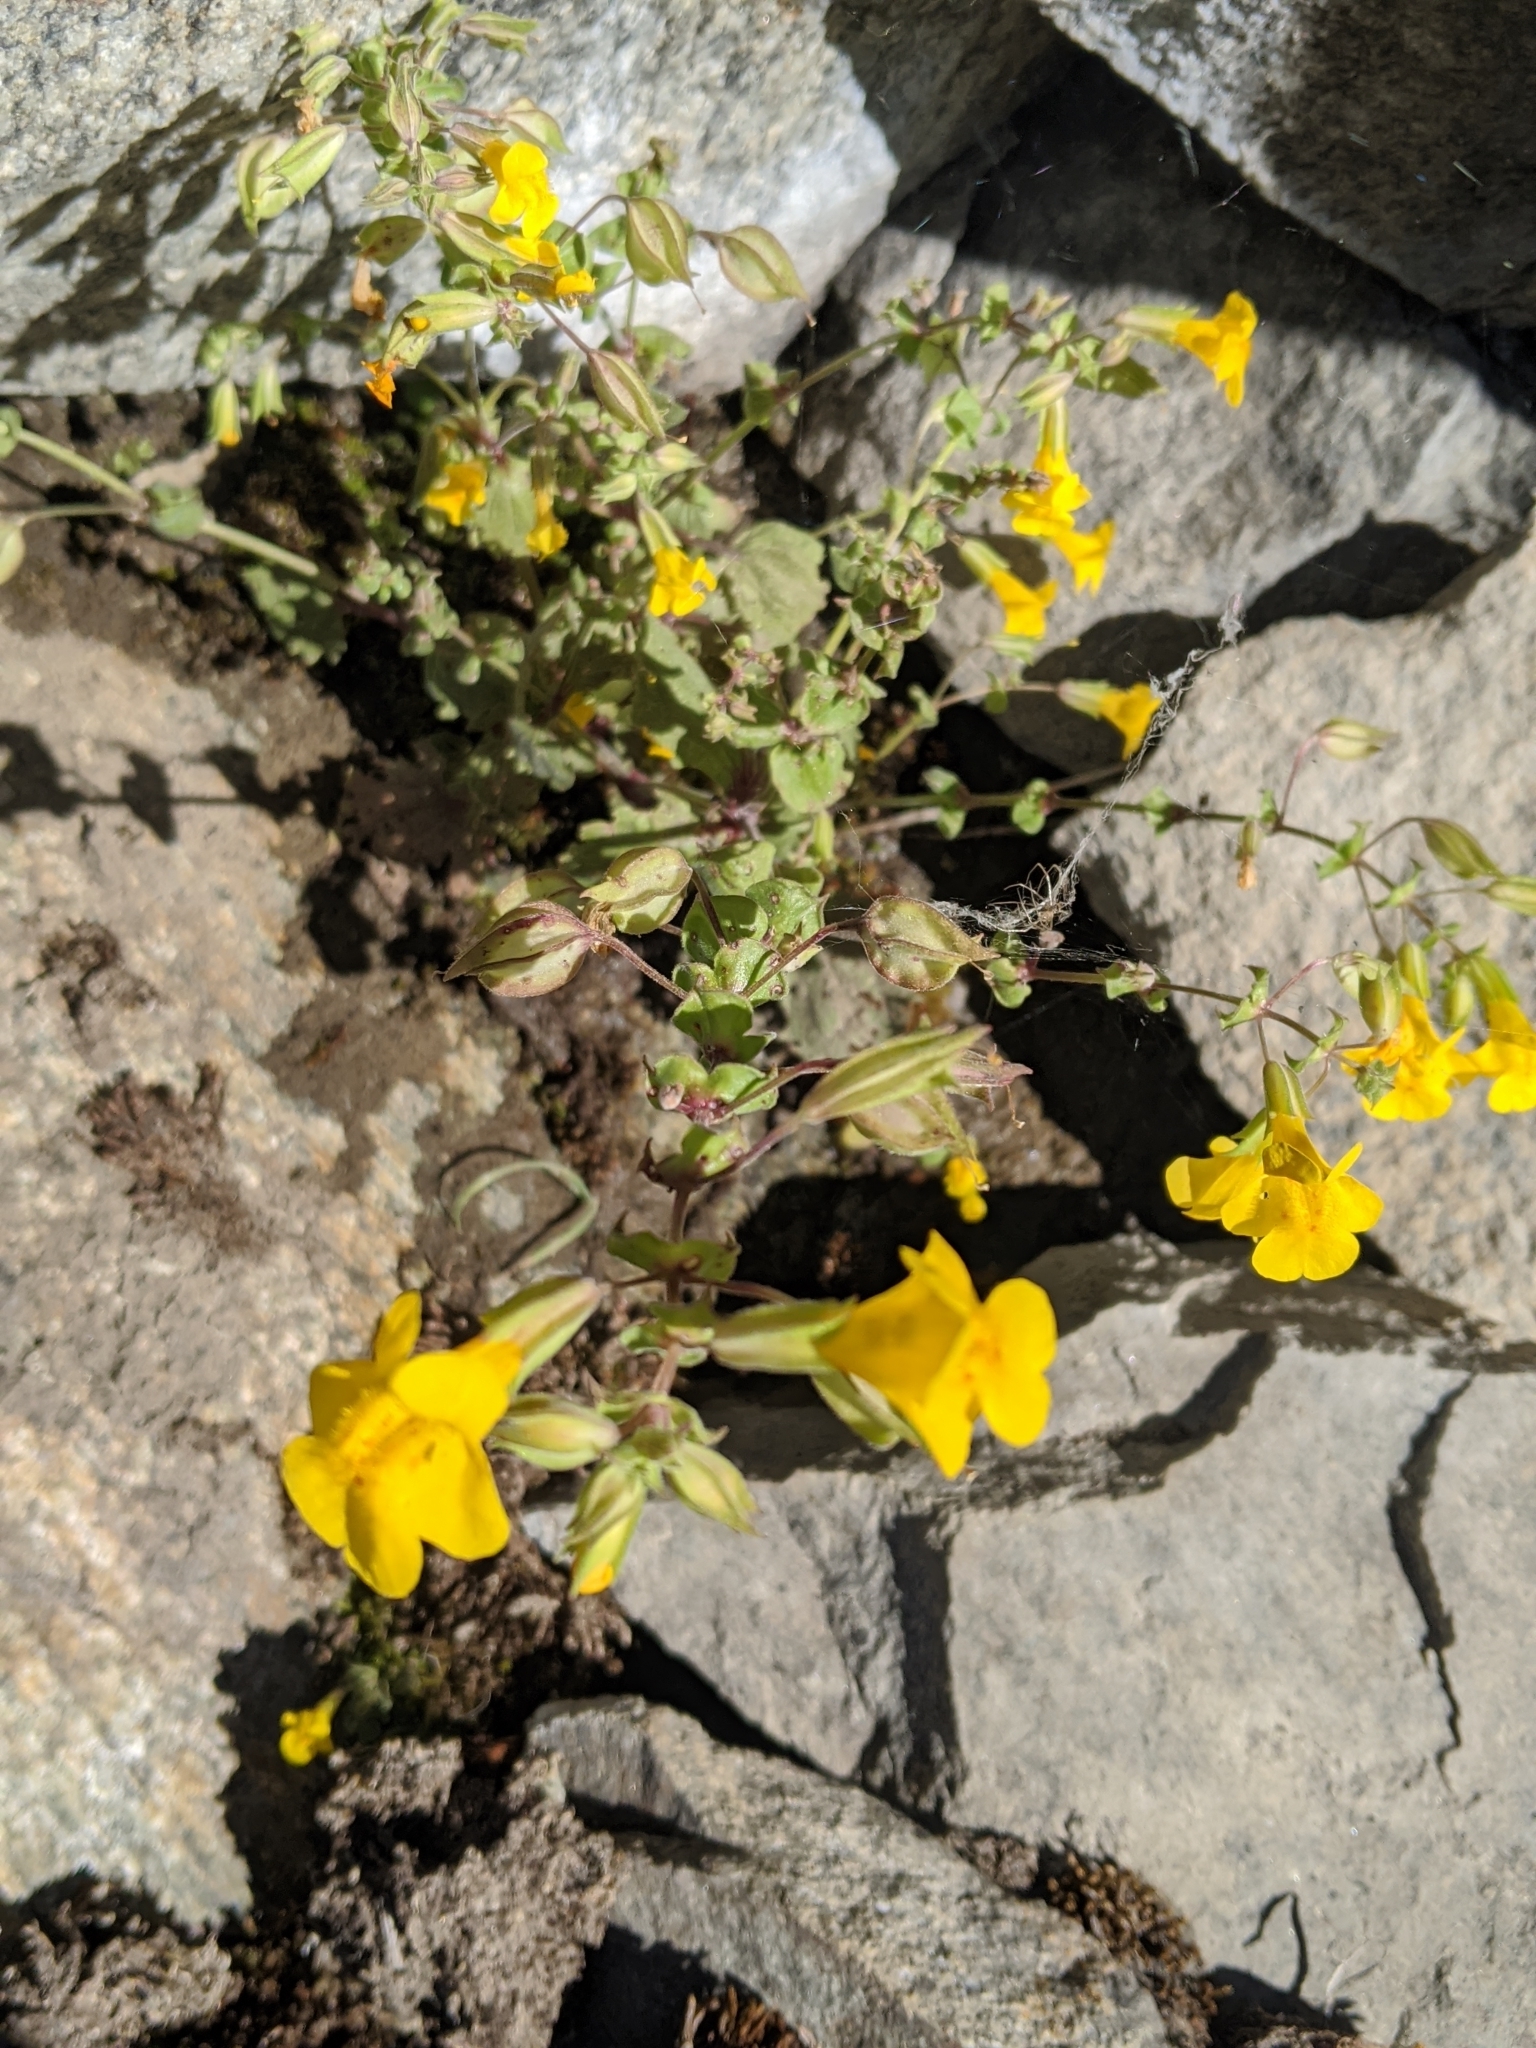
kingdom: Plantae
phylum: Tracheophyta
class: Magnoliopsida
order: Lamiales
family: Phrymaceae
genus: Erythranthe
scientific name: Erythranthe guttata
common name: Monkeyflower
